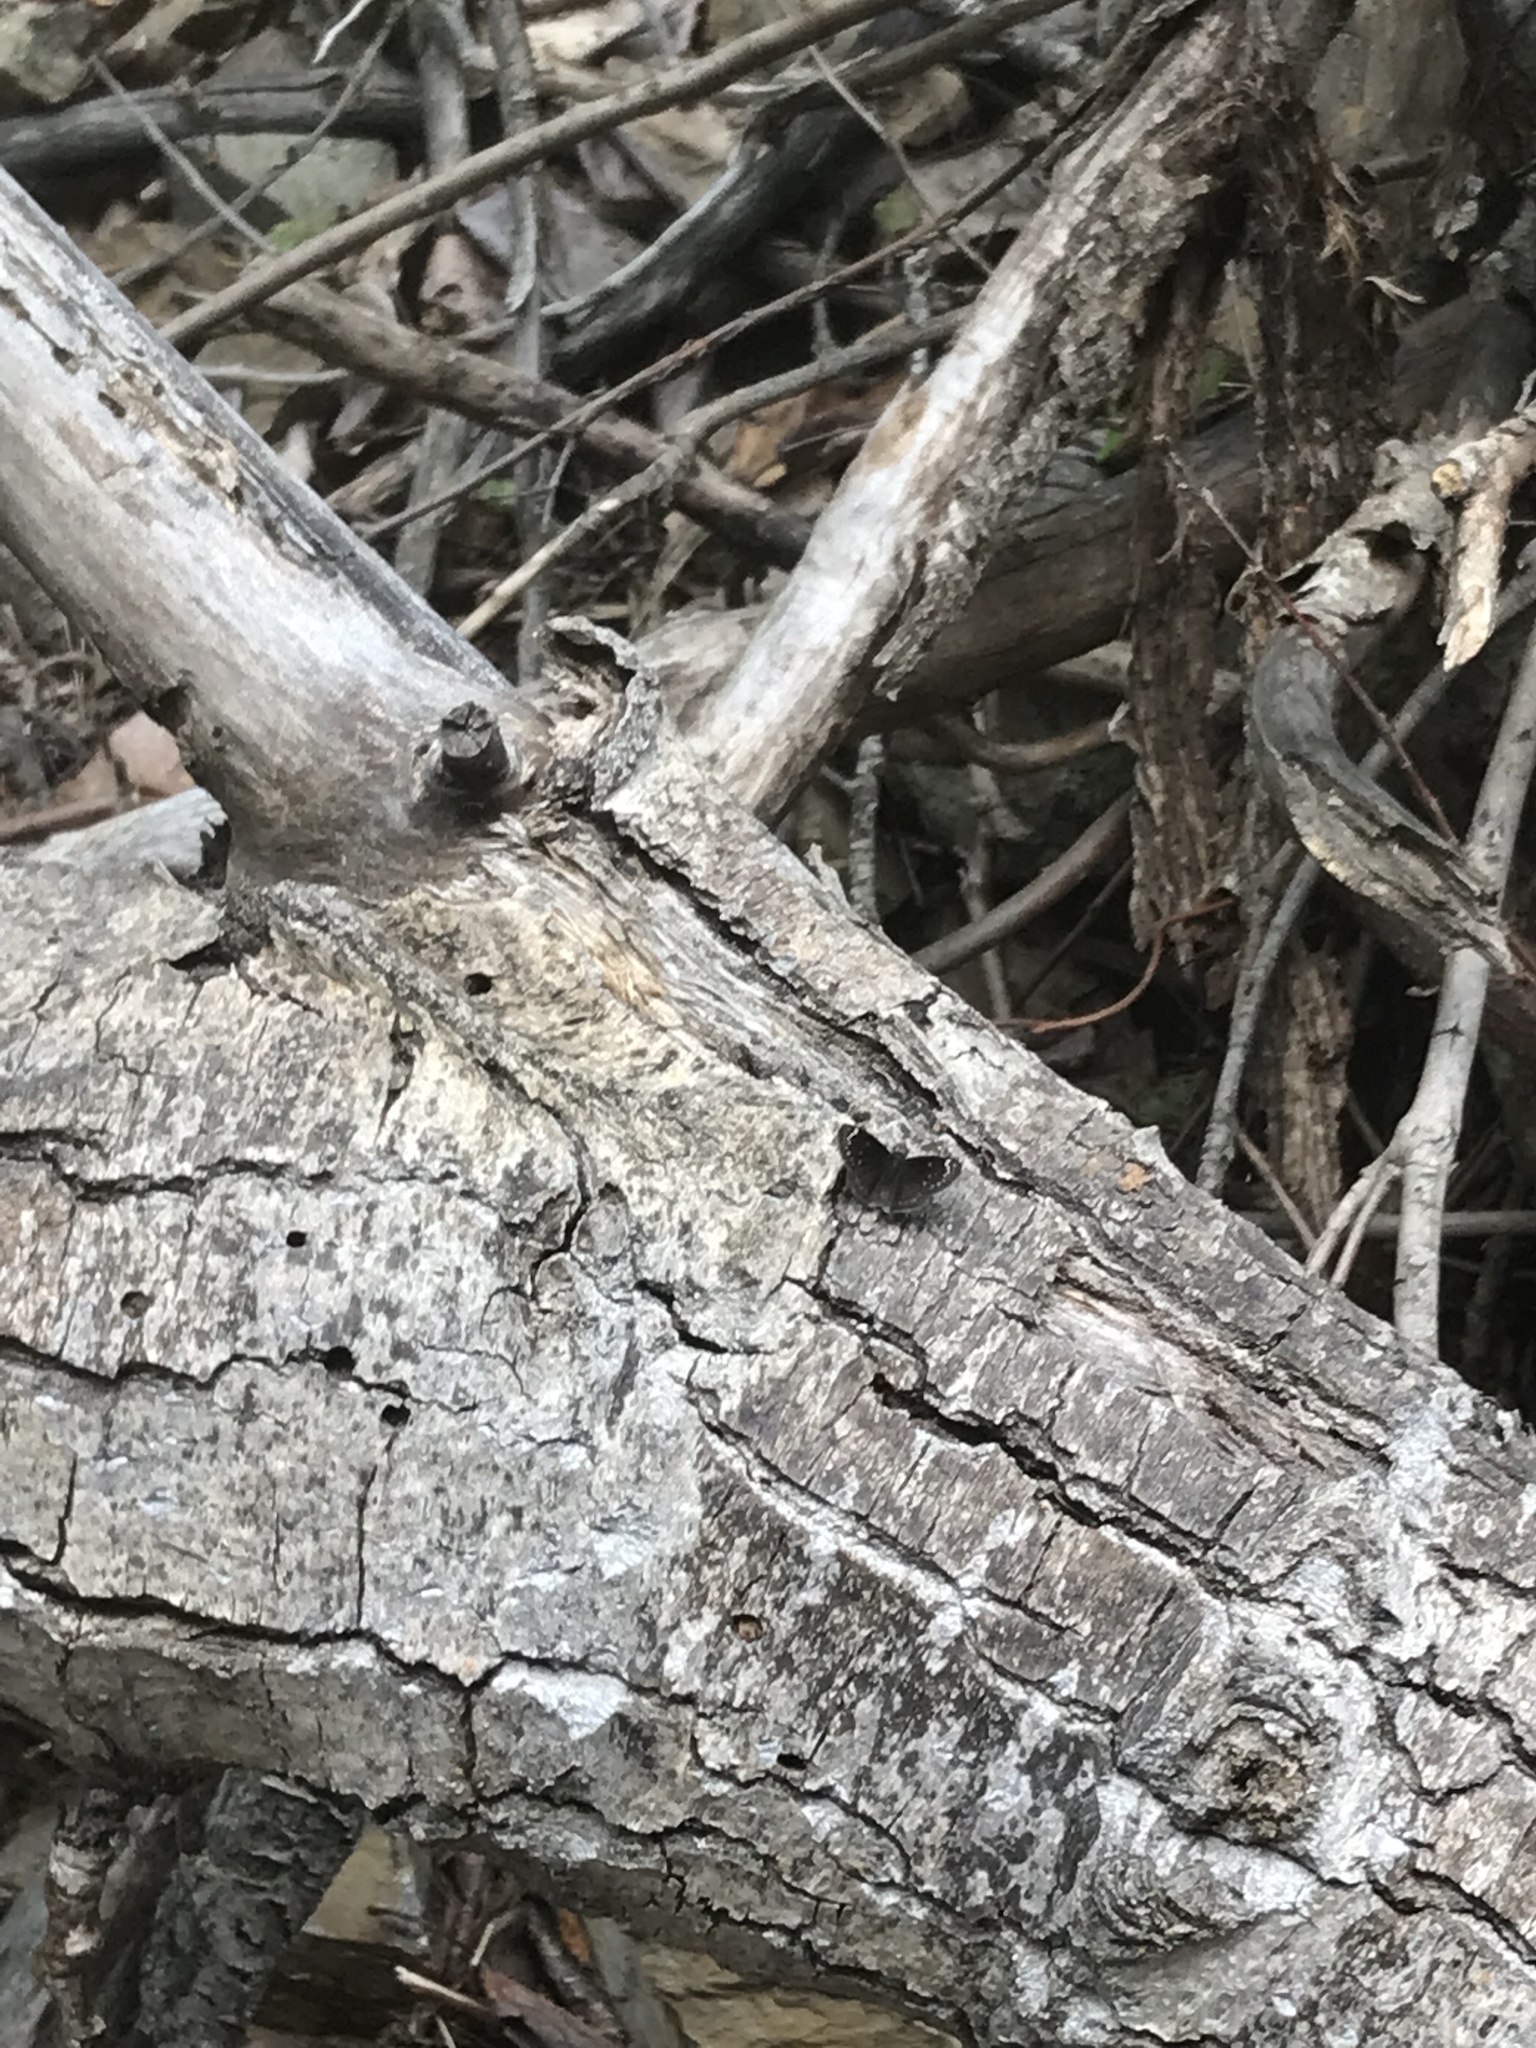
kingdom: Animalia
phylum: Arthropoda
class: Insecta
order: Lepidoptera
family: Hesperiidae
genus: Pholisora
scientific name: Pholisora catullus
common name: Common sootywing
